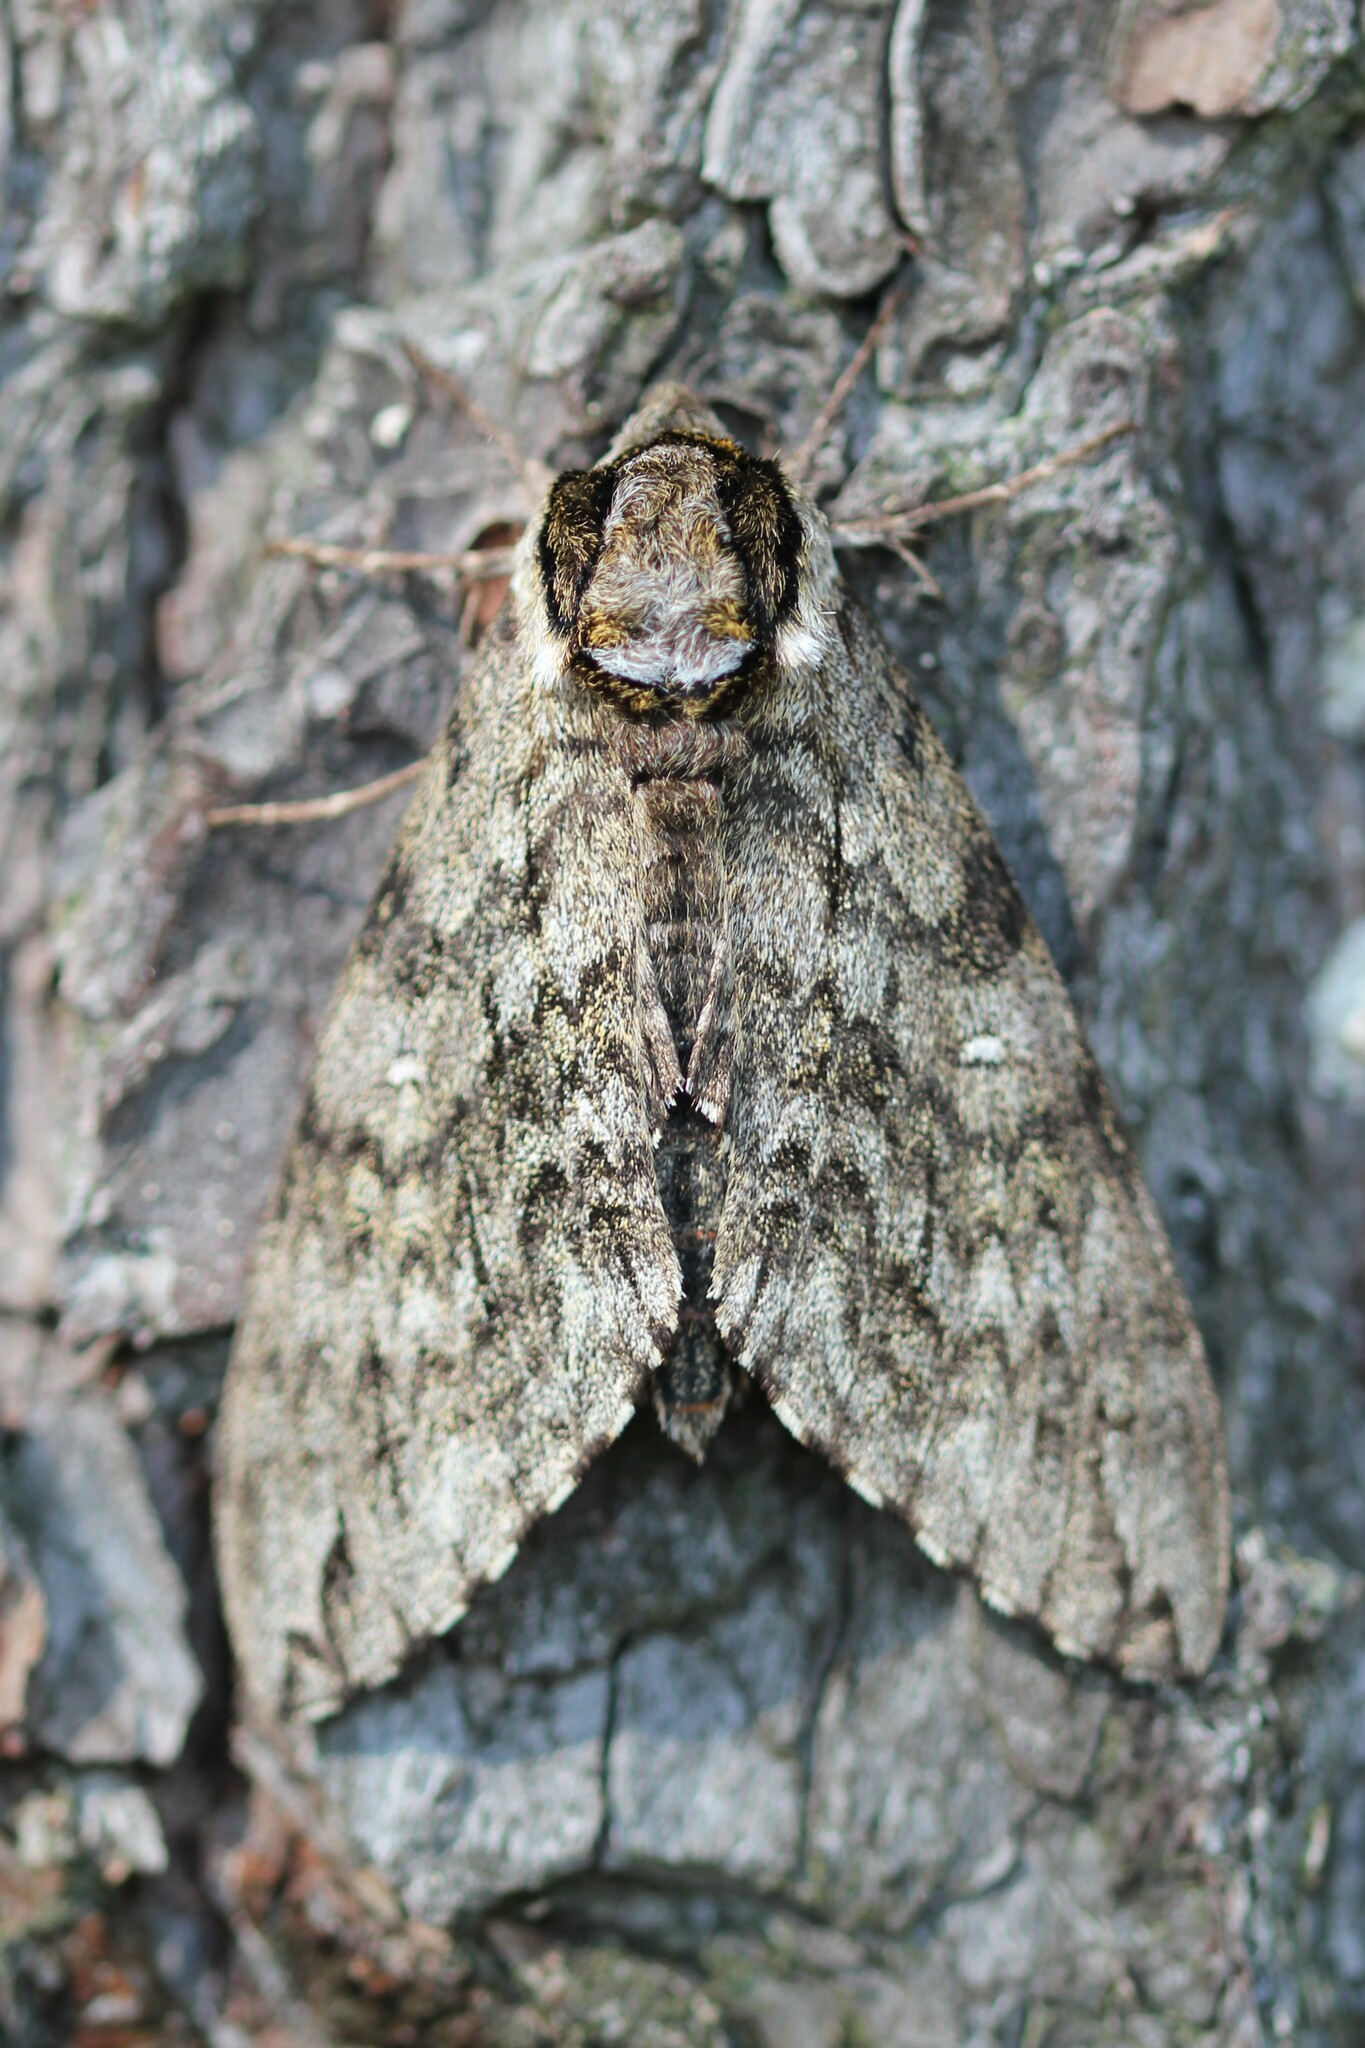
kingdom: Animalia
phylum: Arthropoda
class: Insecta
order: Lepidoptera
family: Sphingidae
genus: Ceratomia
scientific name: Ceratomia undulosa
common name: Waved sphinx
